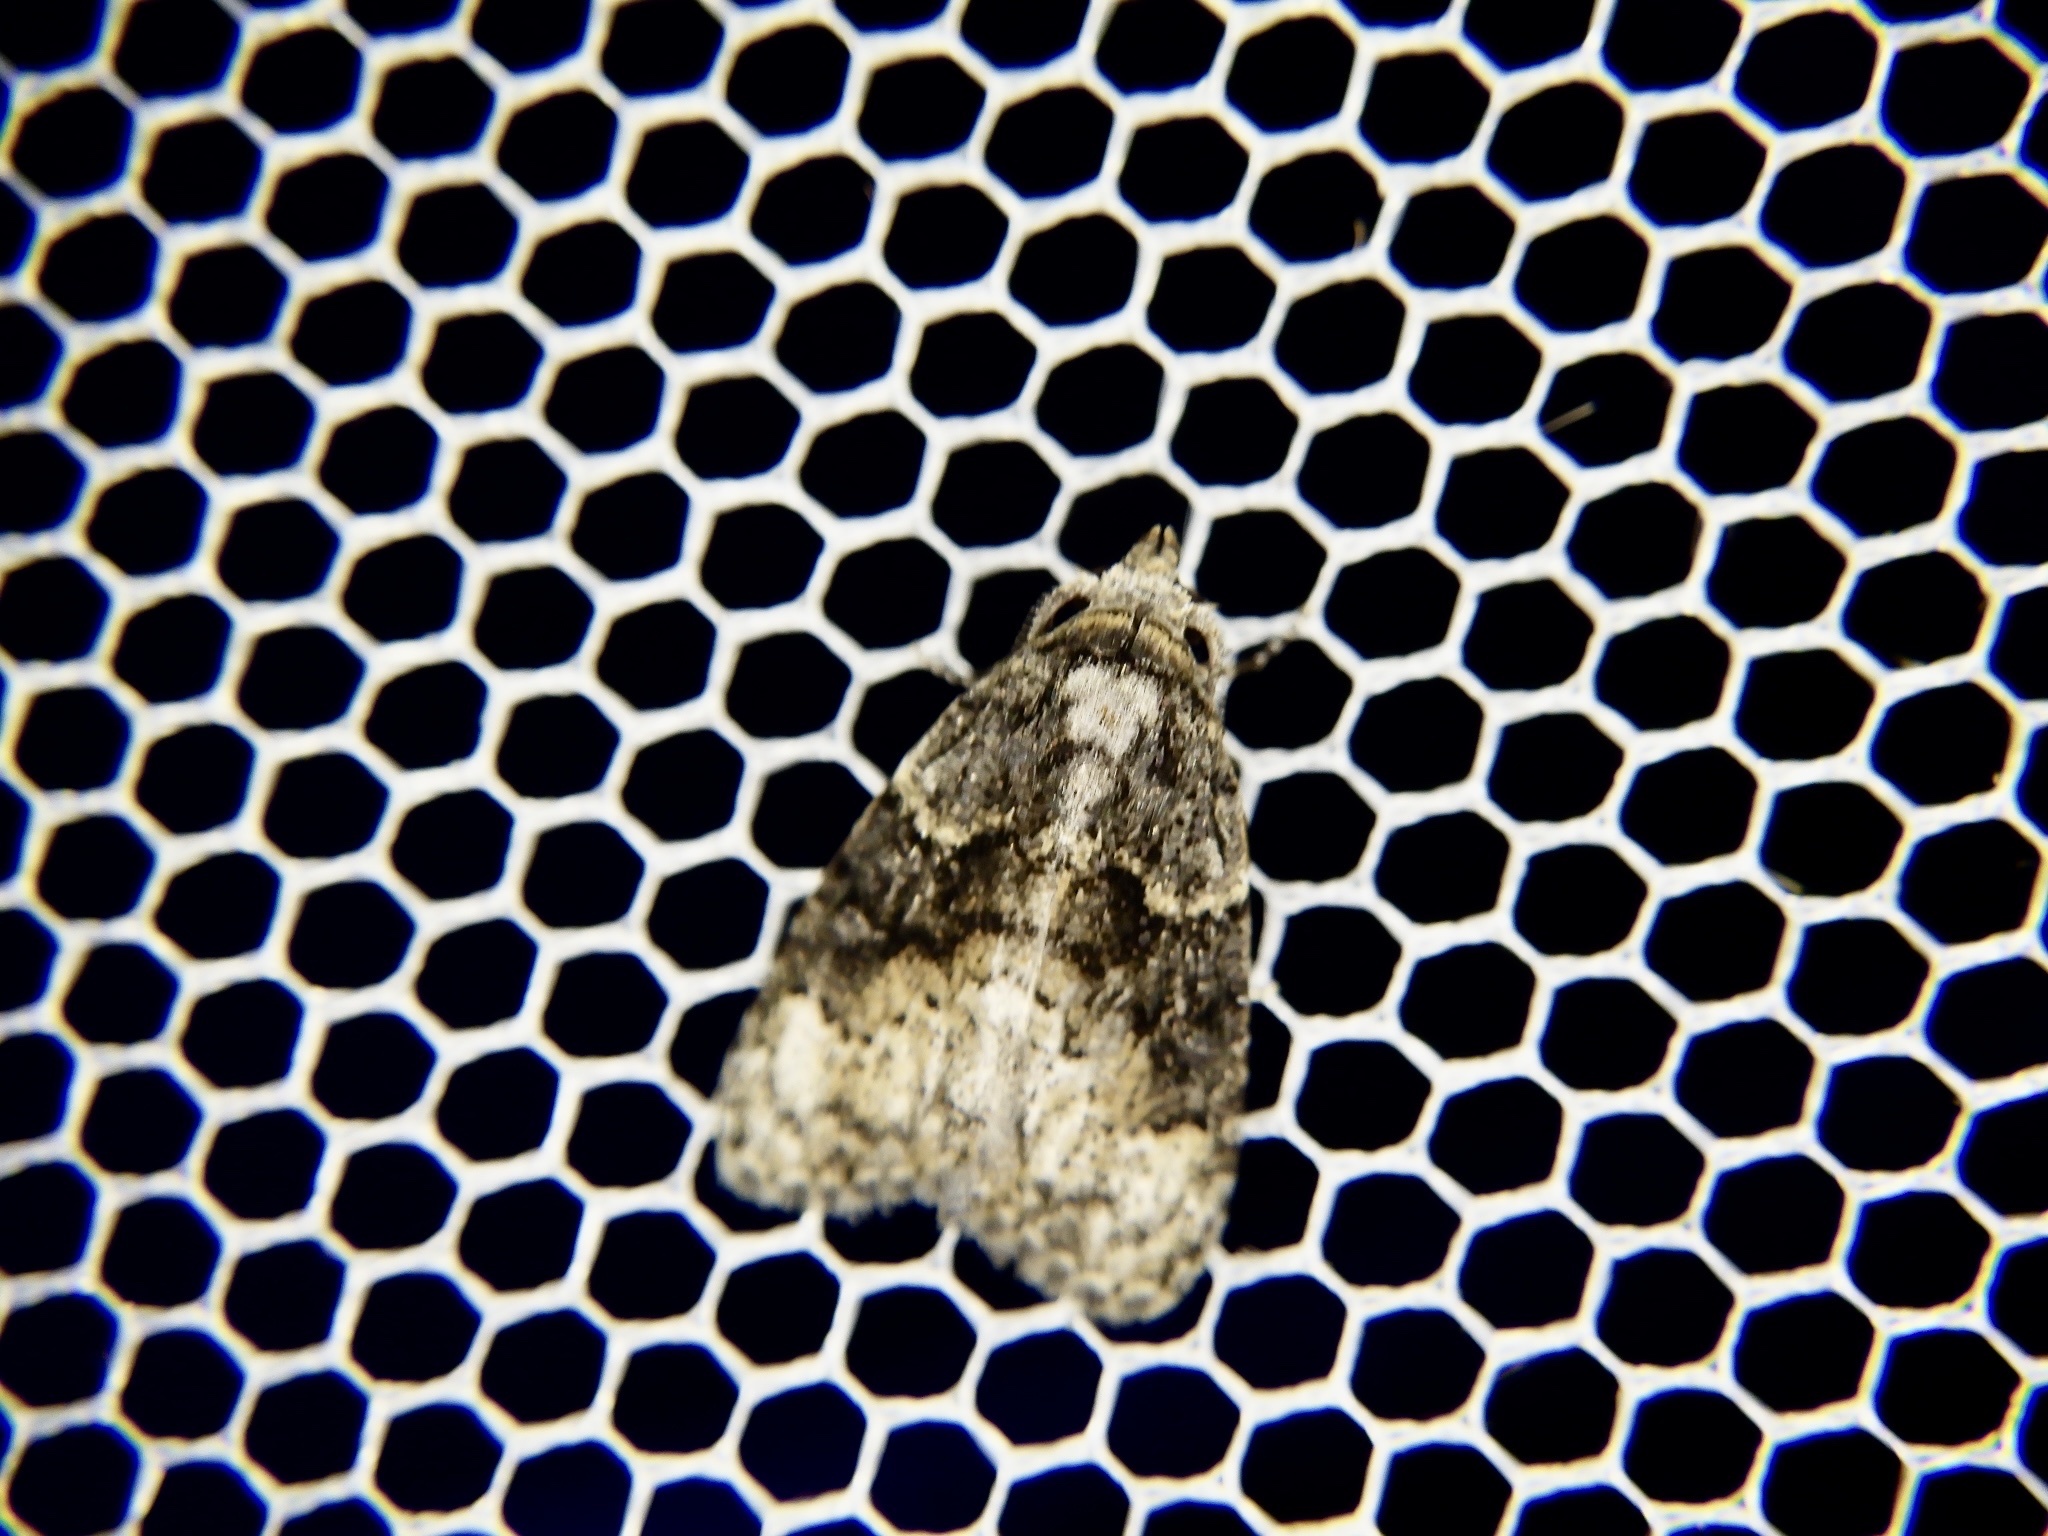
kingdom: Animalia
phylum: Arthropoda
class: Insecta
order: Lepidoptera
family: Nolidae
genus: Meganola
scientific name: Meganola shimekii
